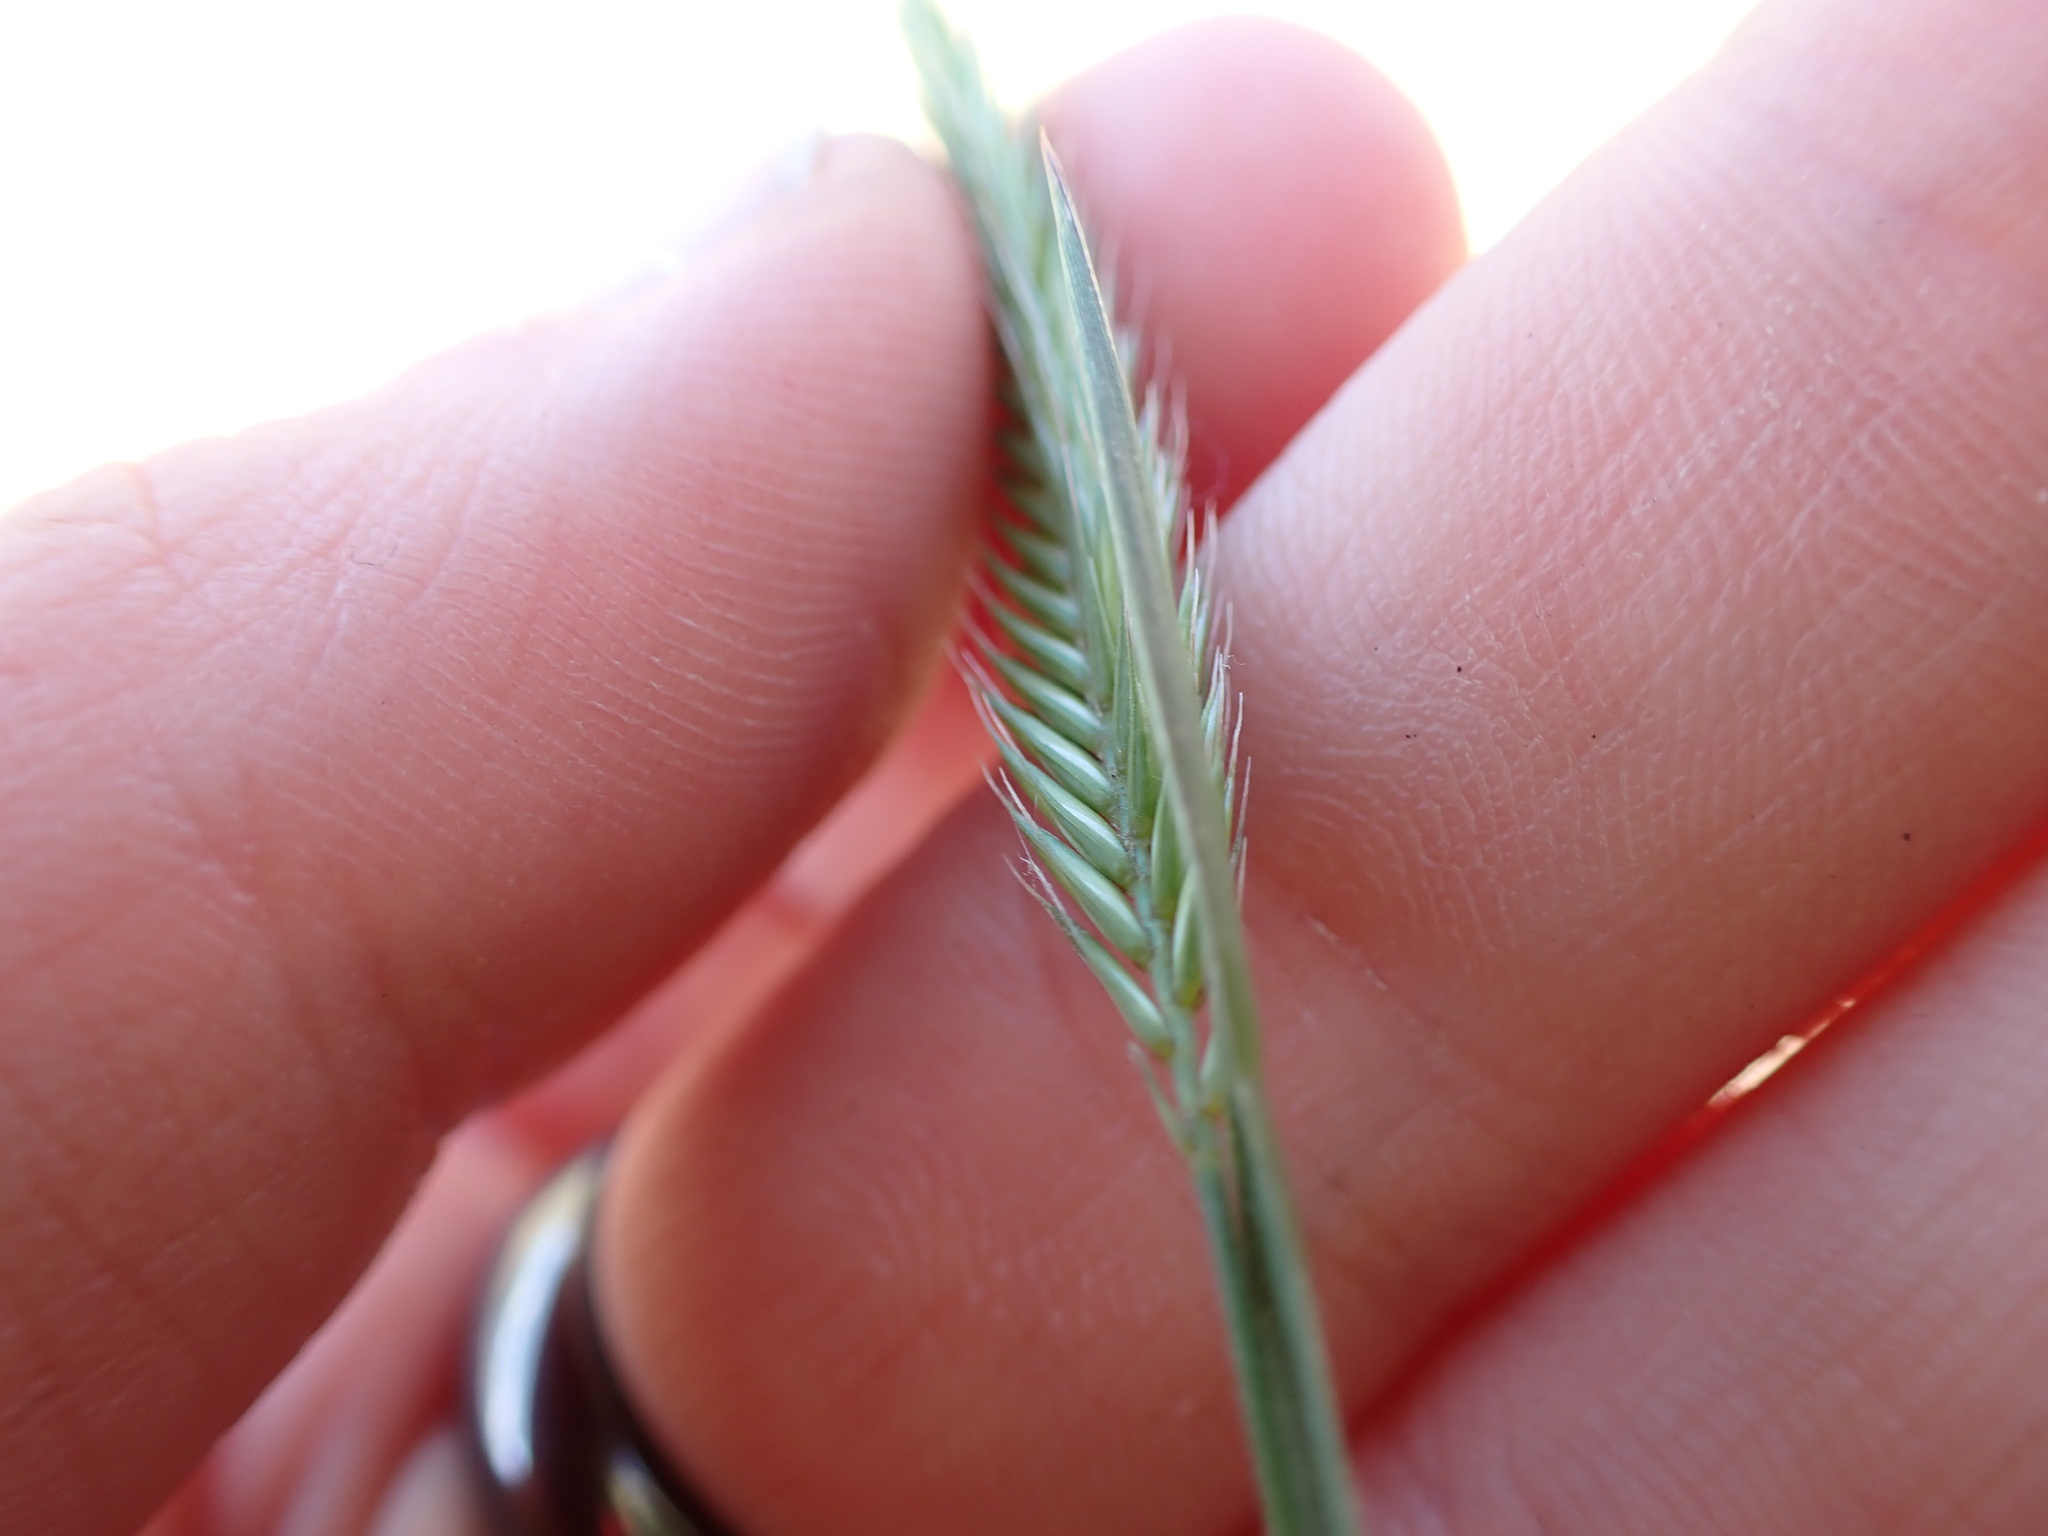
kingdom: Plantae
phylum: Tracheophyta
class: Liliopsida
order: Poales
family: Poaceae
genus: Agropyron
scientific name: Agropyron cristatum
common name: Crested wheatgrass
